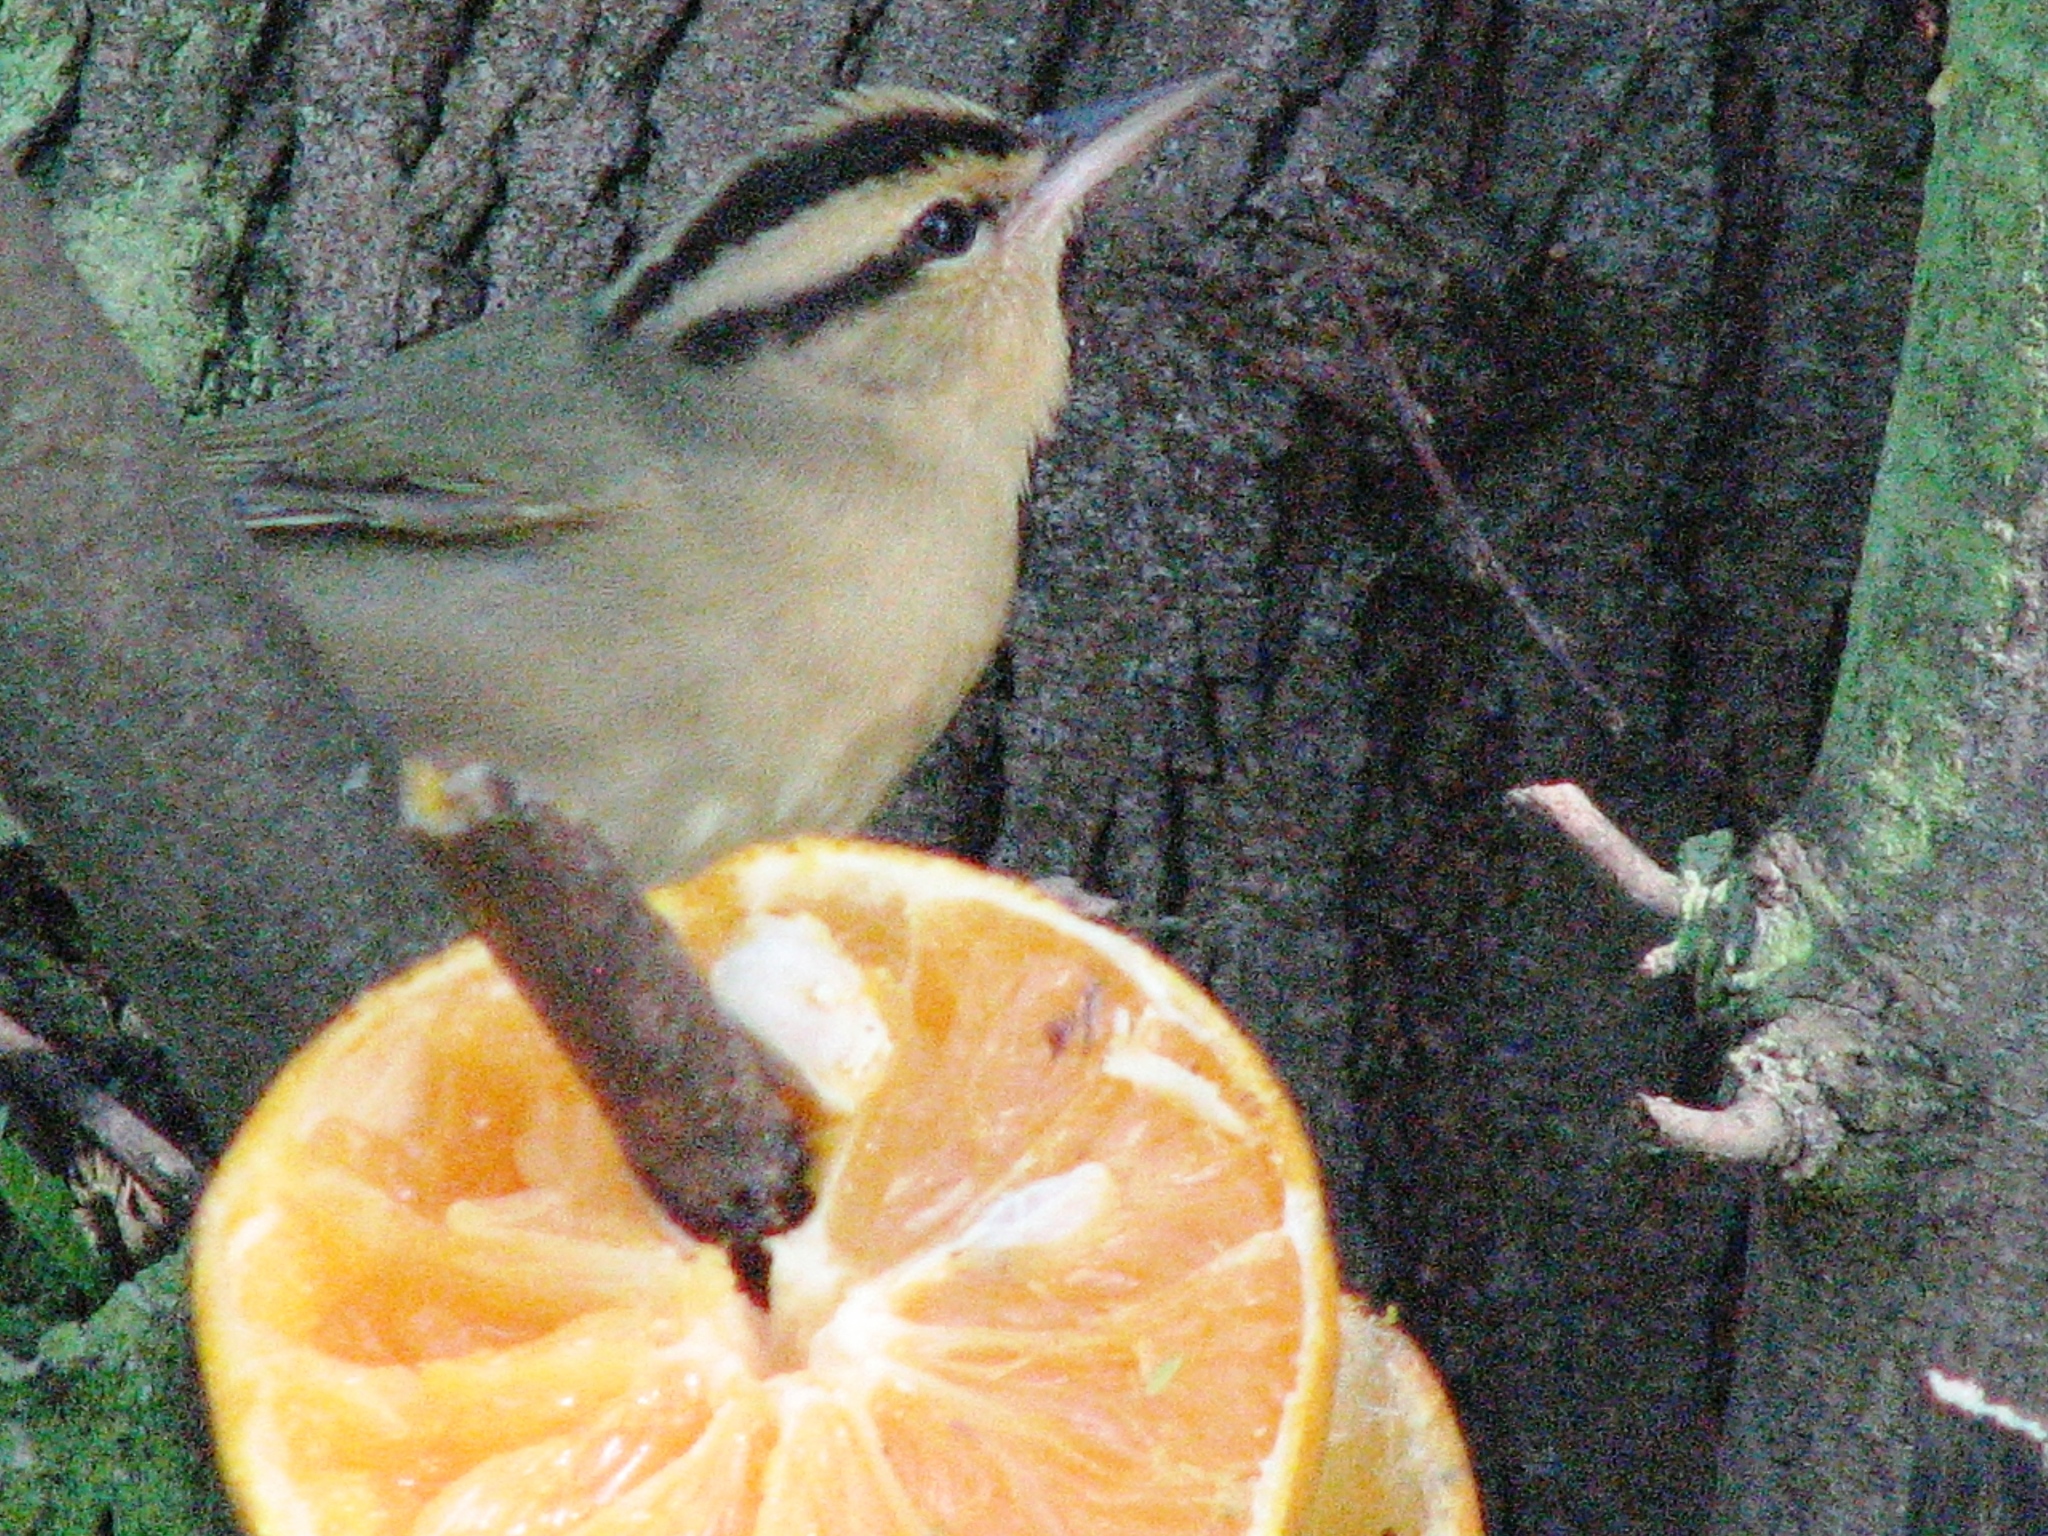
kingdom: Animalia
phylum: Chordata
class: Aves
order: Passeriformes
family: Parulidae
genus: Helmitheros
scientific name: Helmitheros vermivorum
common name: Worm-eating warbler
